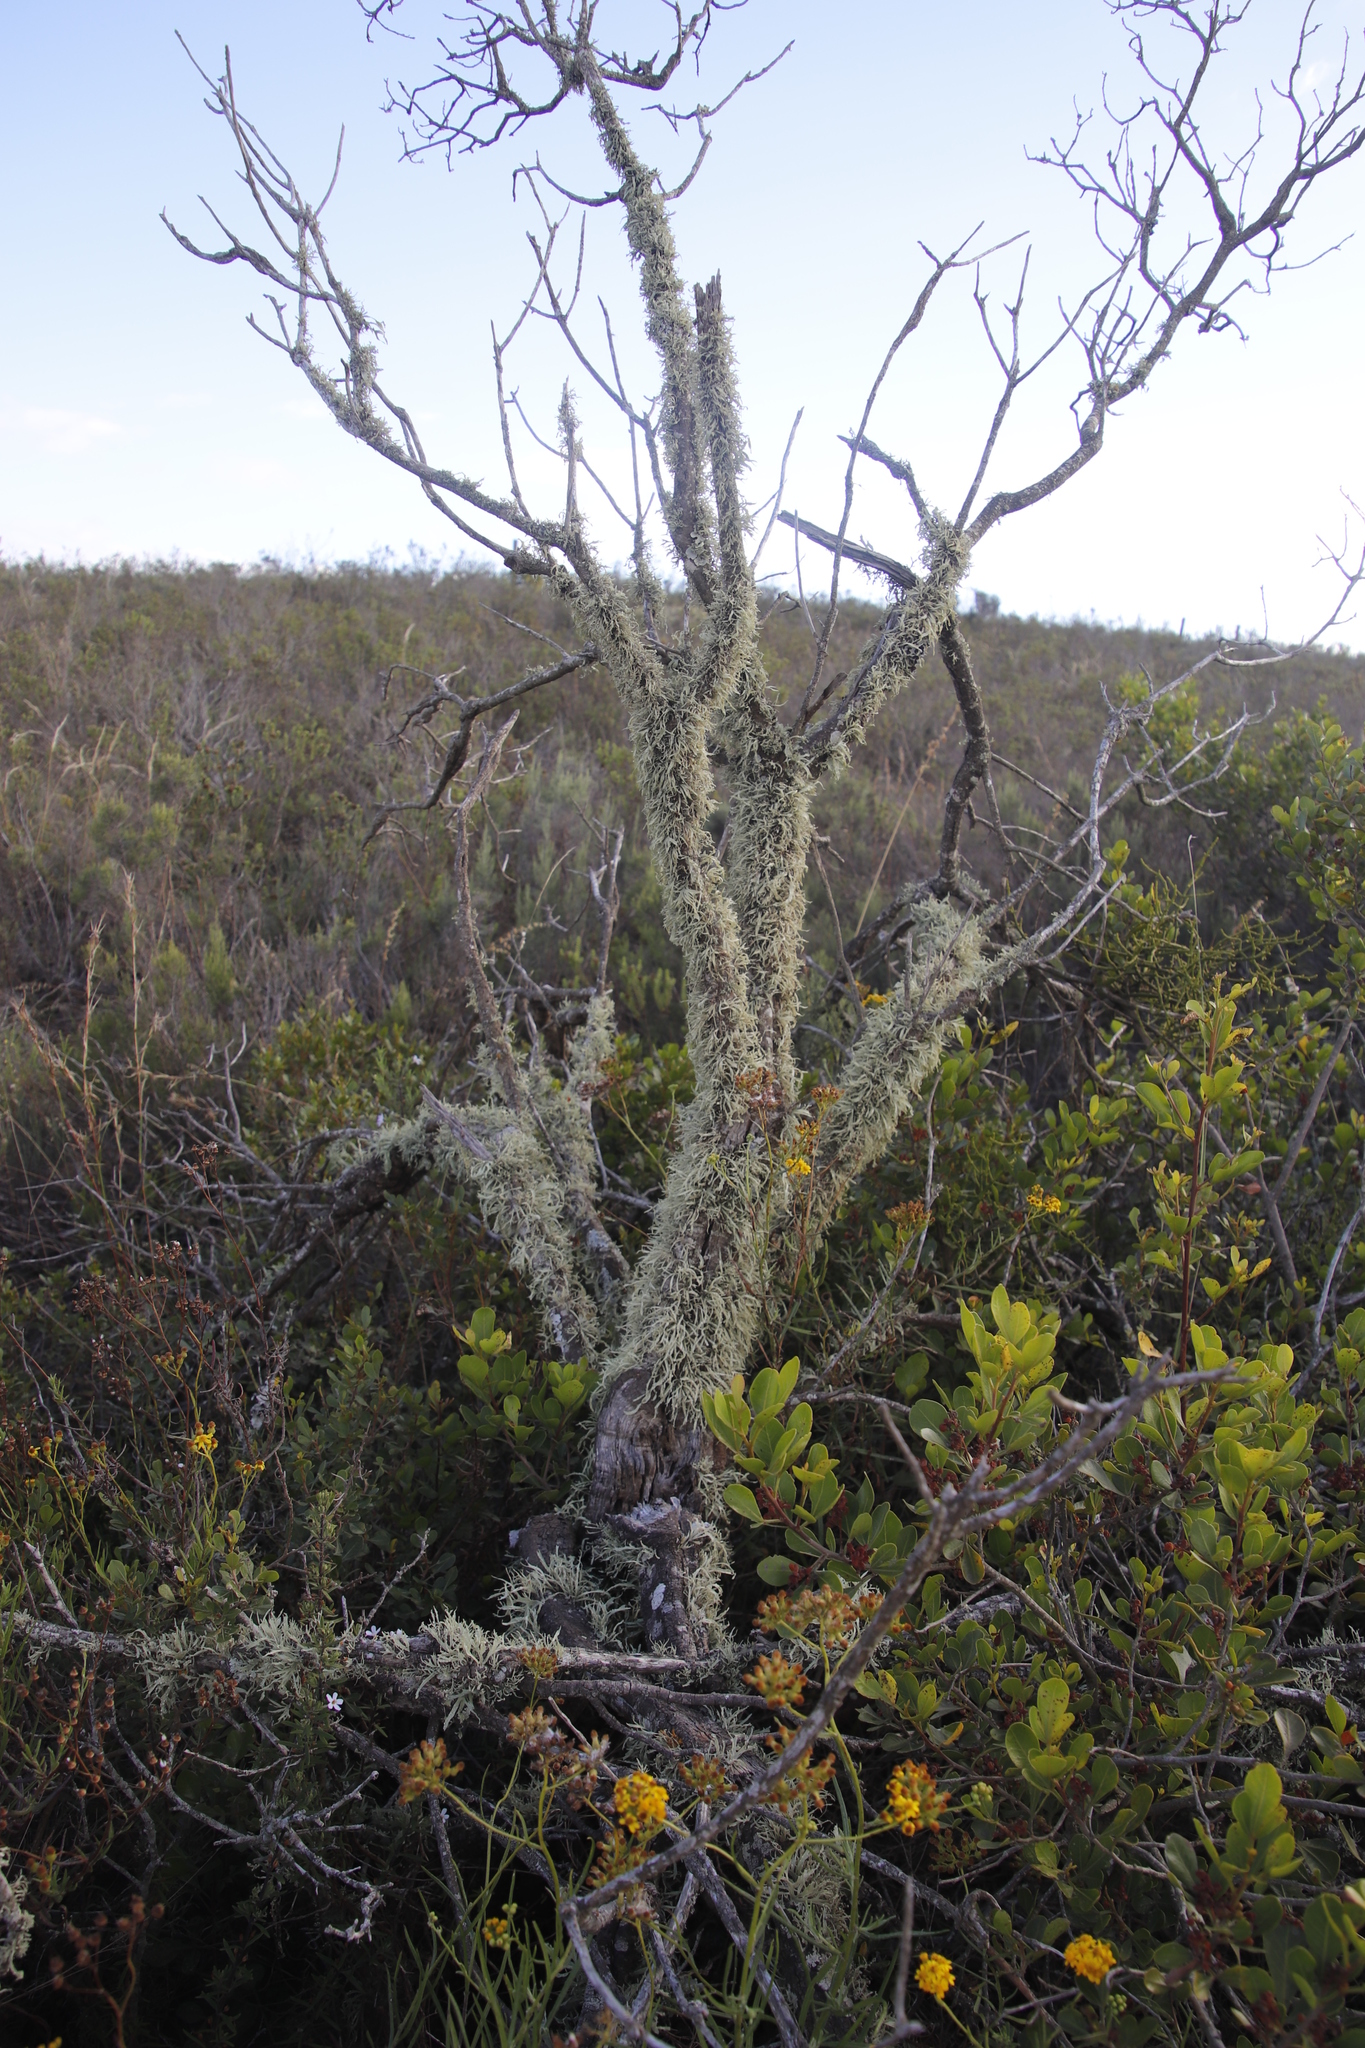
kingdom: Fungi
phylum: Ascomycota
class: Lecanoromycetes
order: Lecanorales
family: Ramalinaceae
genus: Ramalina
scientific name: Ramalina celastri
